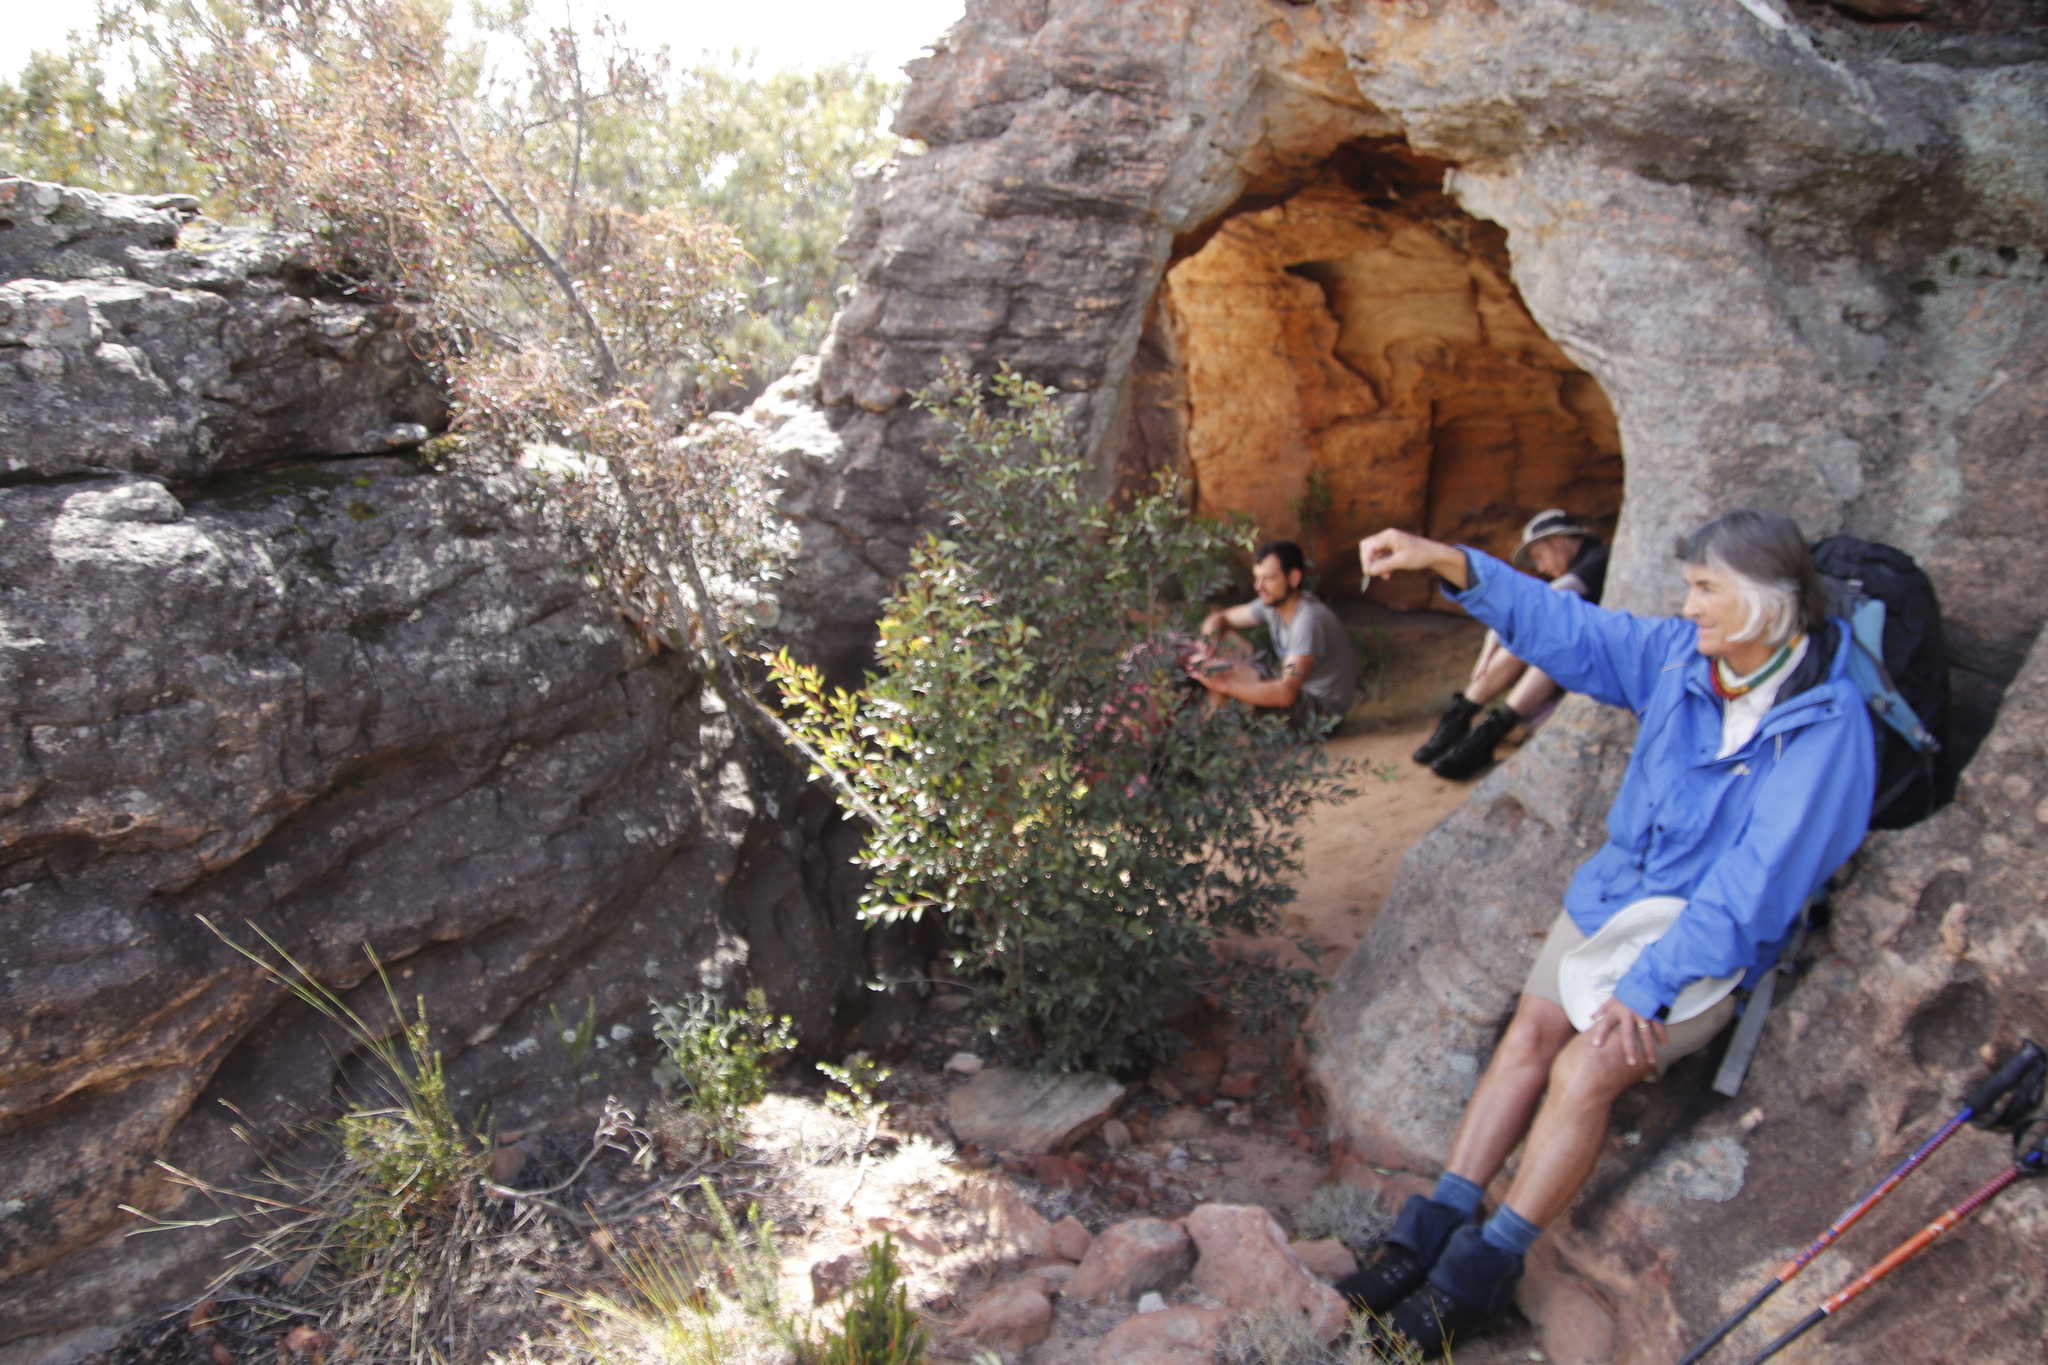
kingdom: Plantae
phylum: Tracheophyta
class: Magnoliopsida
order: Celastrales
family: Celastraceae
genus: Gymnosporia
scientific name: Gymnosporia acuminata
